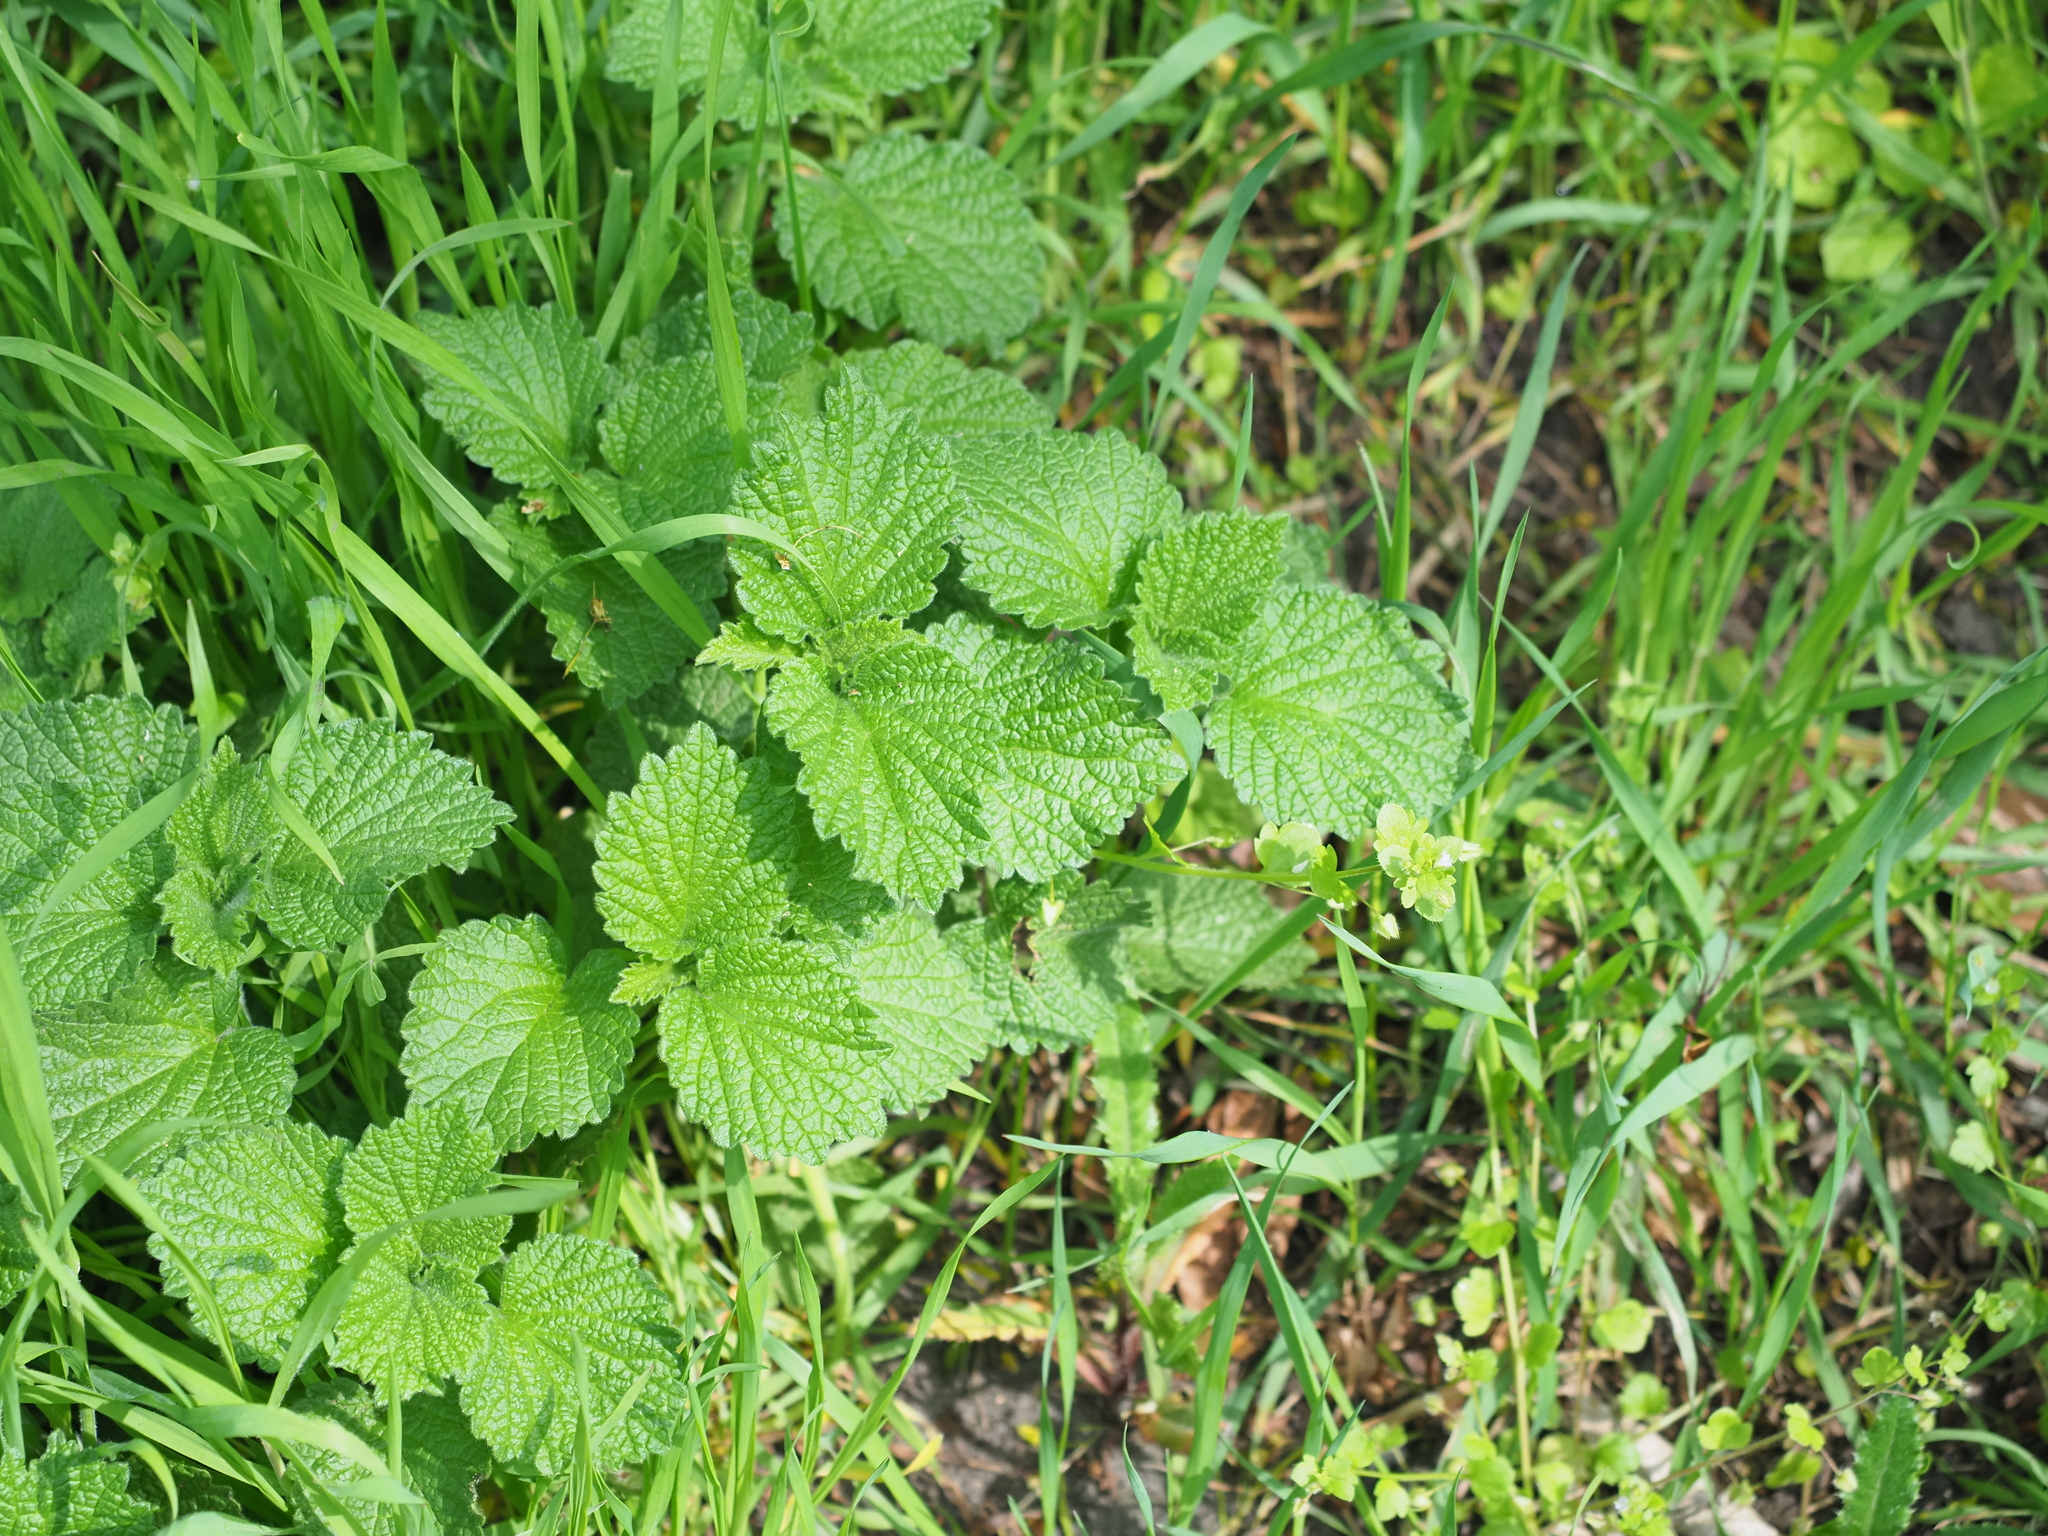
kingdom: Plantae
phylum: Tracheophyta
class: Magnoliopsida
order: Lamiales
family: Lamiaceae
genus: Ballota
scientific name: Ballota nigra
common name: Black horehound
